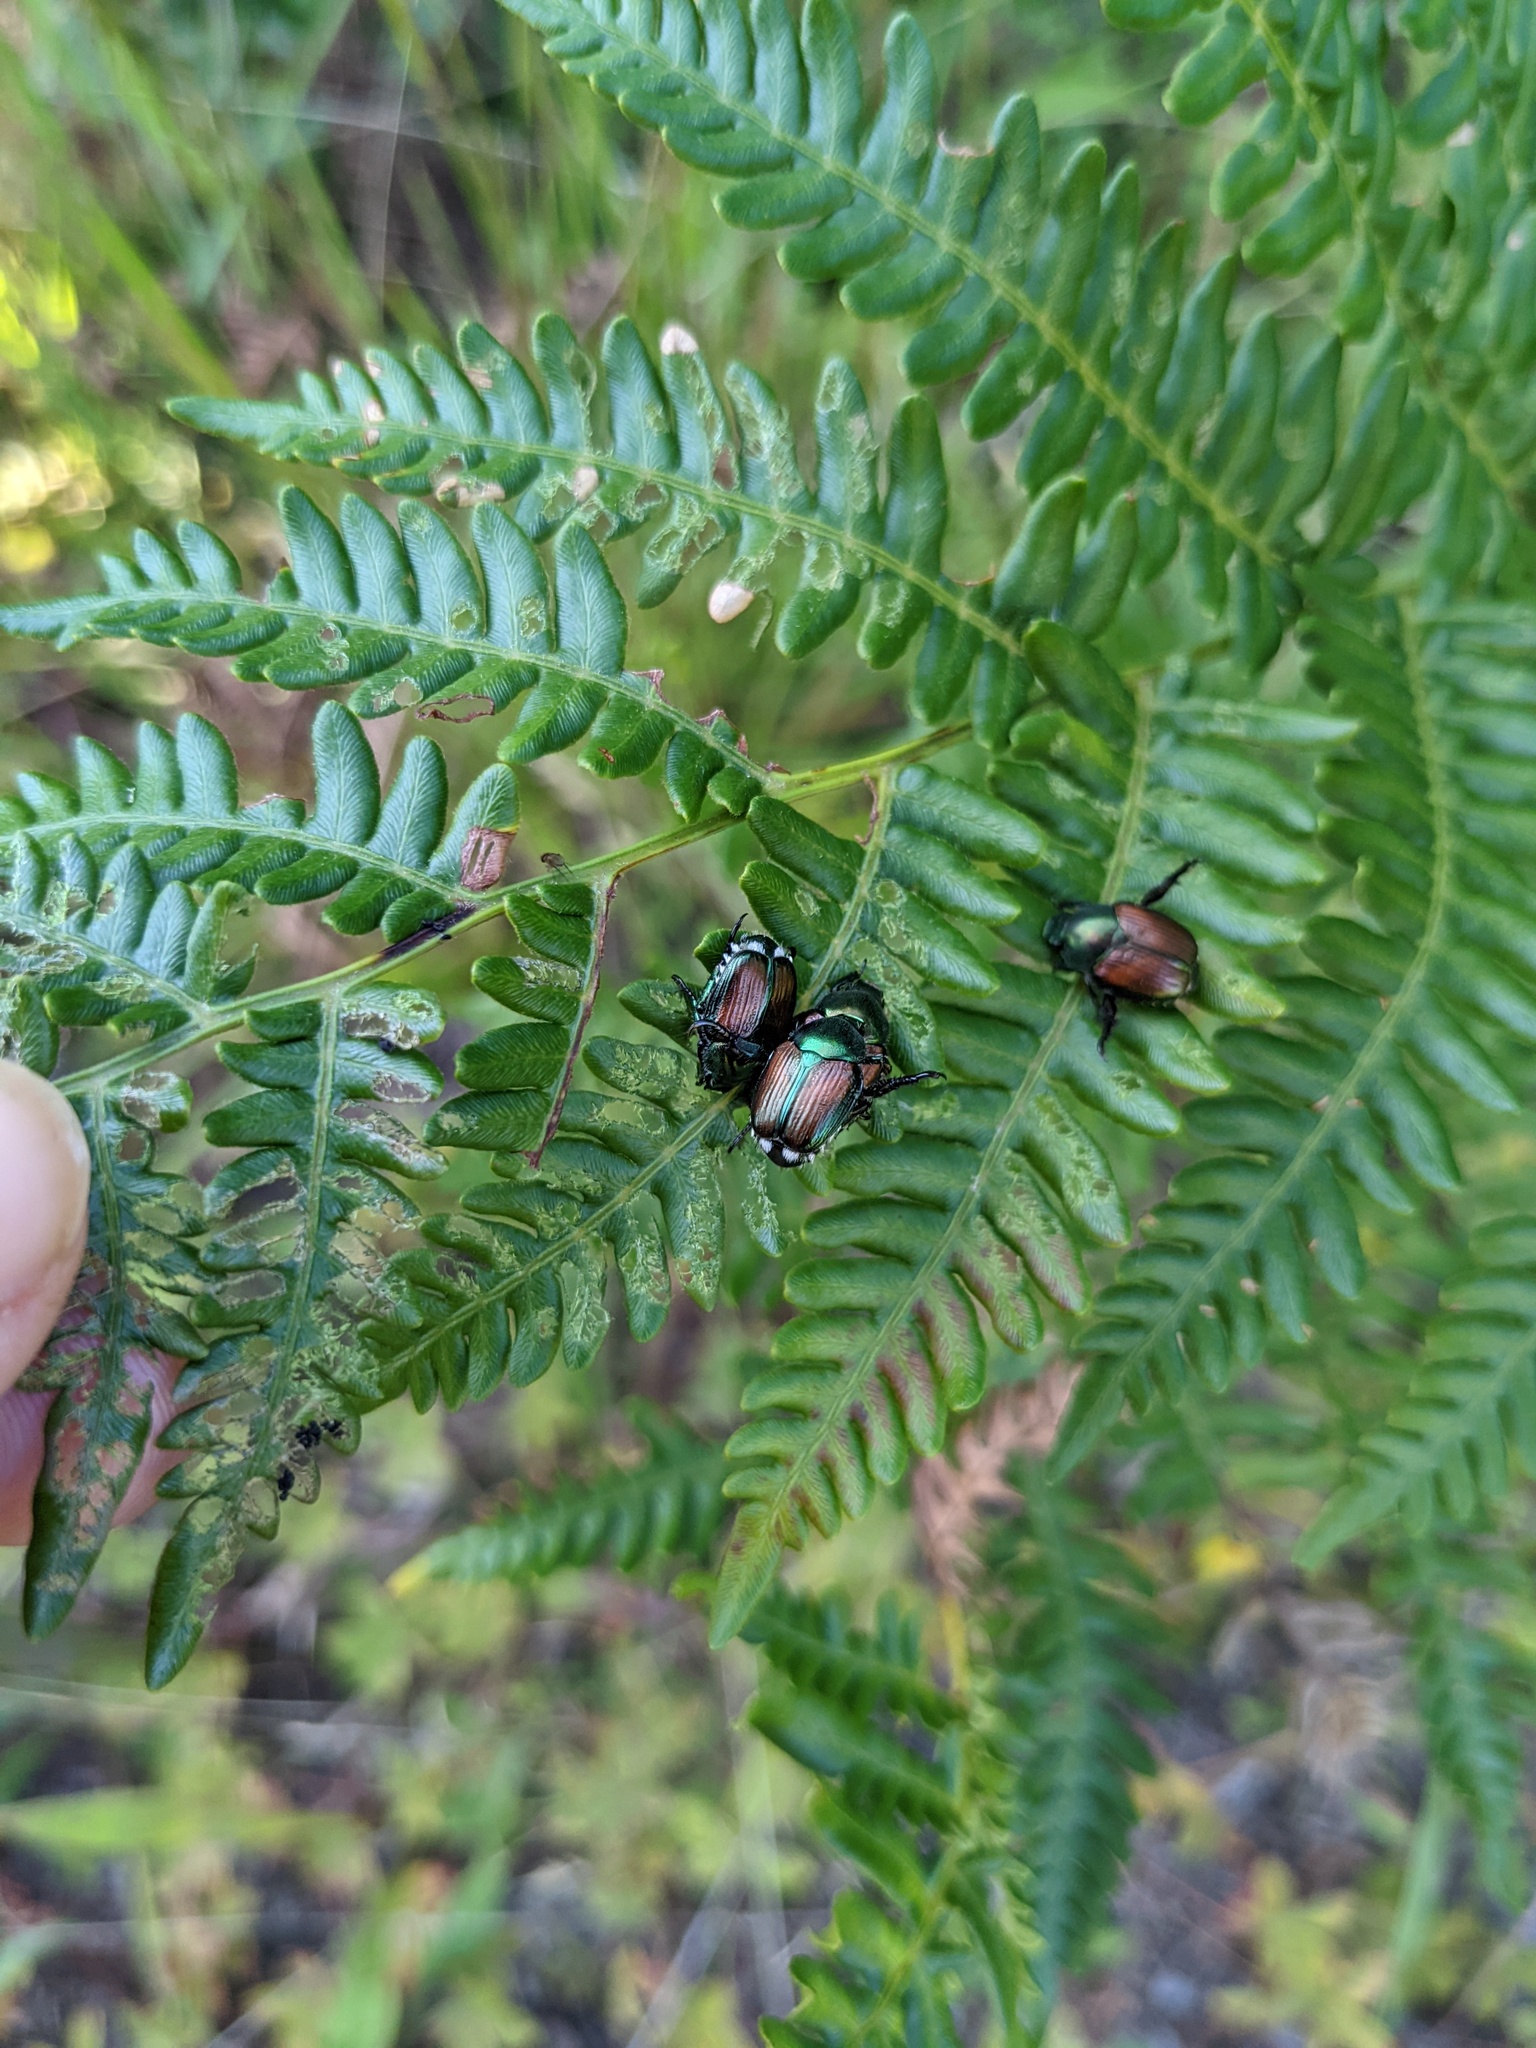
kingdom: Animalia
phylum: Arthropoda
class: Insecta
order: Coleoptera
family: Scarabaeidae
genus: Popillia
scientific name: Popillia japonica
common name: Japanese beetle
